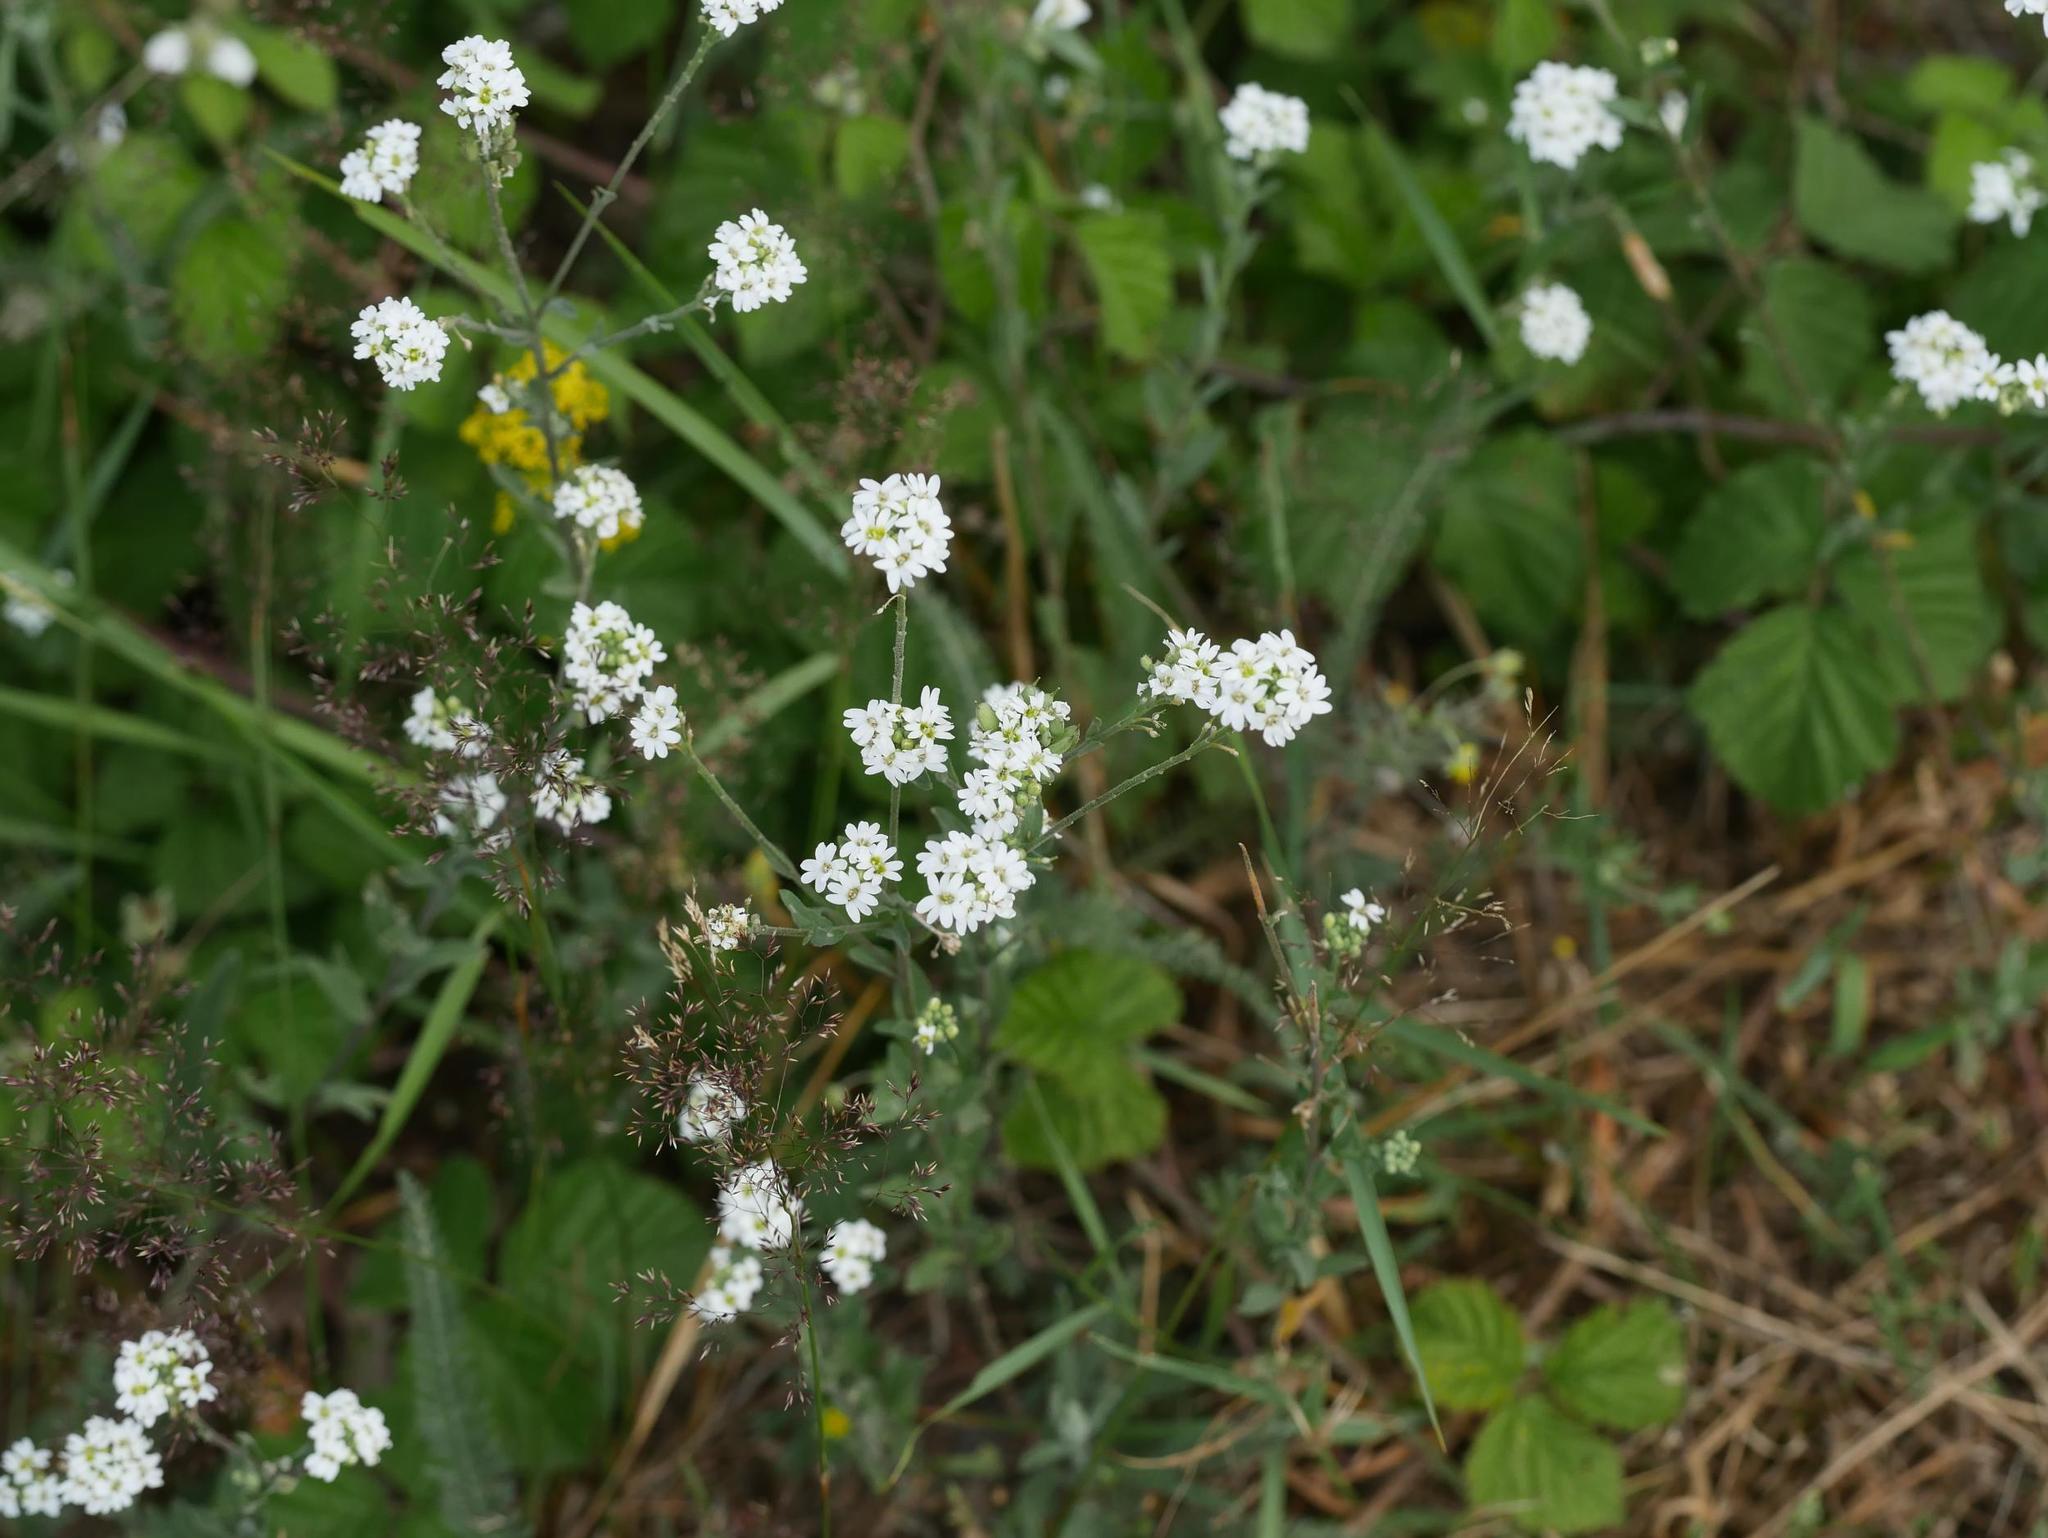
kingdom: Plantae
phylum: Tracheophyta
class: Magnoliopsida
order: Brassicales
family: Brassicaceae
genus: Berteroa
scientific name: Berteroa incana
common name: Hoary alison
